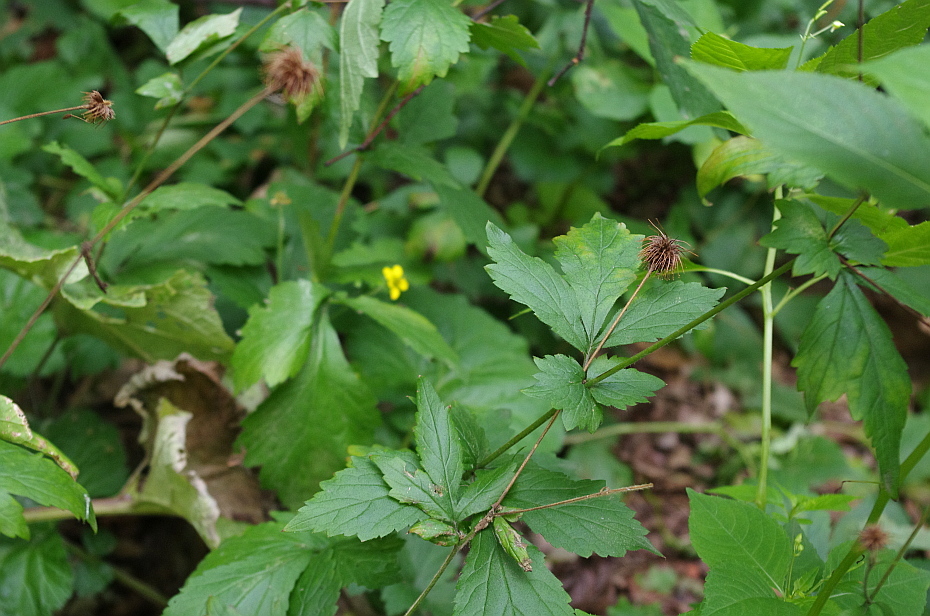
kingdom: Plantae
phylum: Tracheophyta
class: Magnoliopsida
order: Rosales
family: Rosaceae
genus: Geum
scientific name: Geum urbanum
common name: Wood avens
